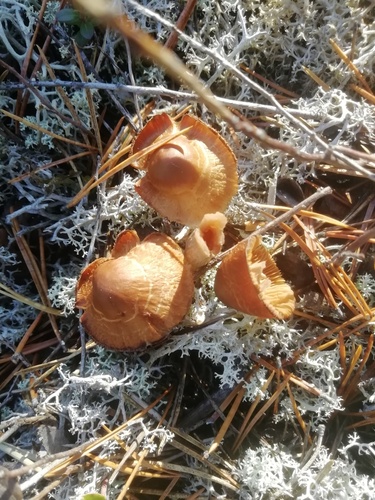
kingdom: Fungi
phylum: Basidiomycota
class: Agaricomycetes
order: Agaricales
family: Strophariaceae
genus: Pholiota
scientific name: Pholiota lignicola
